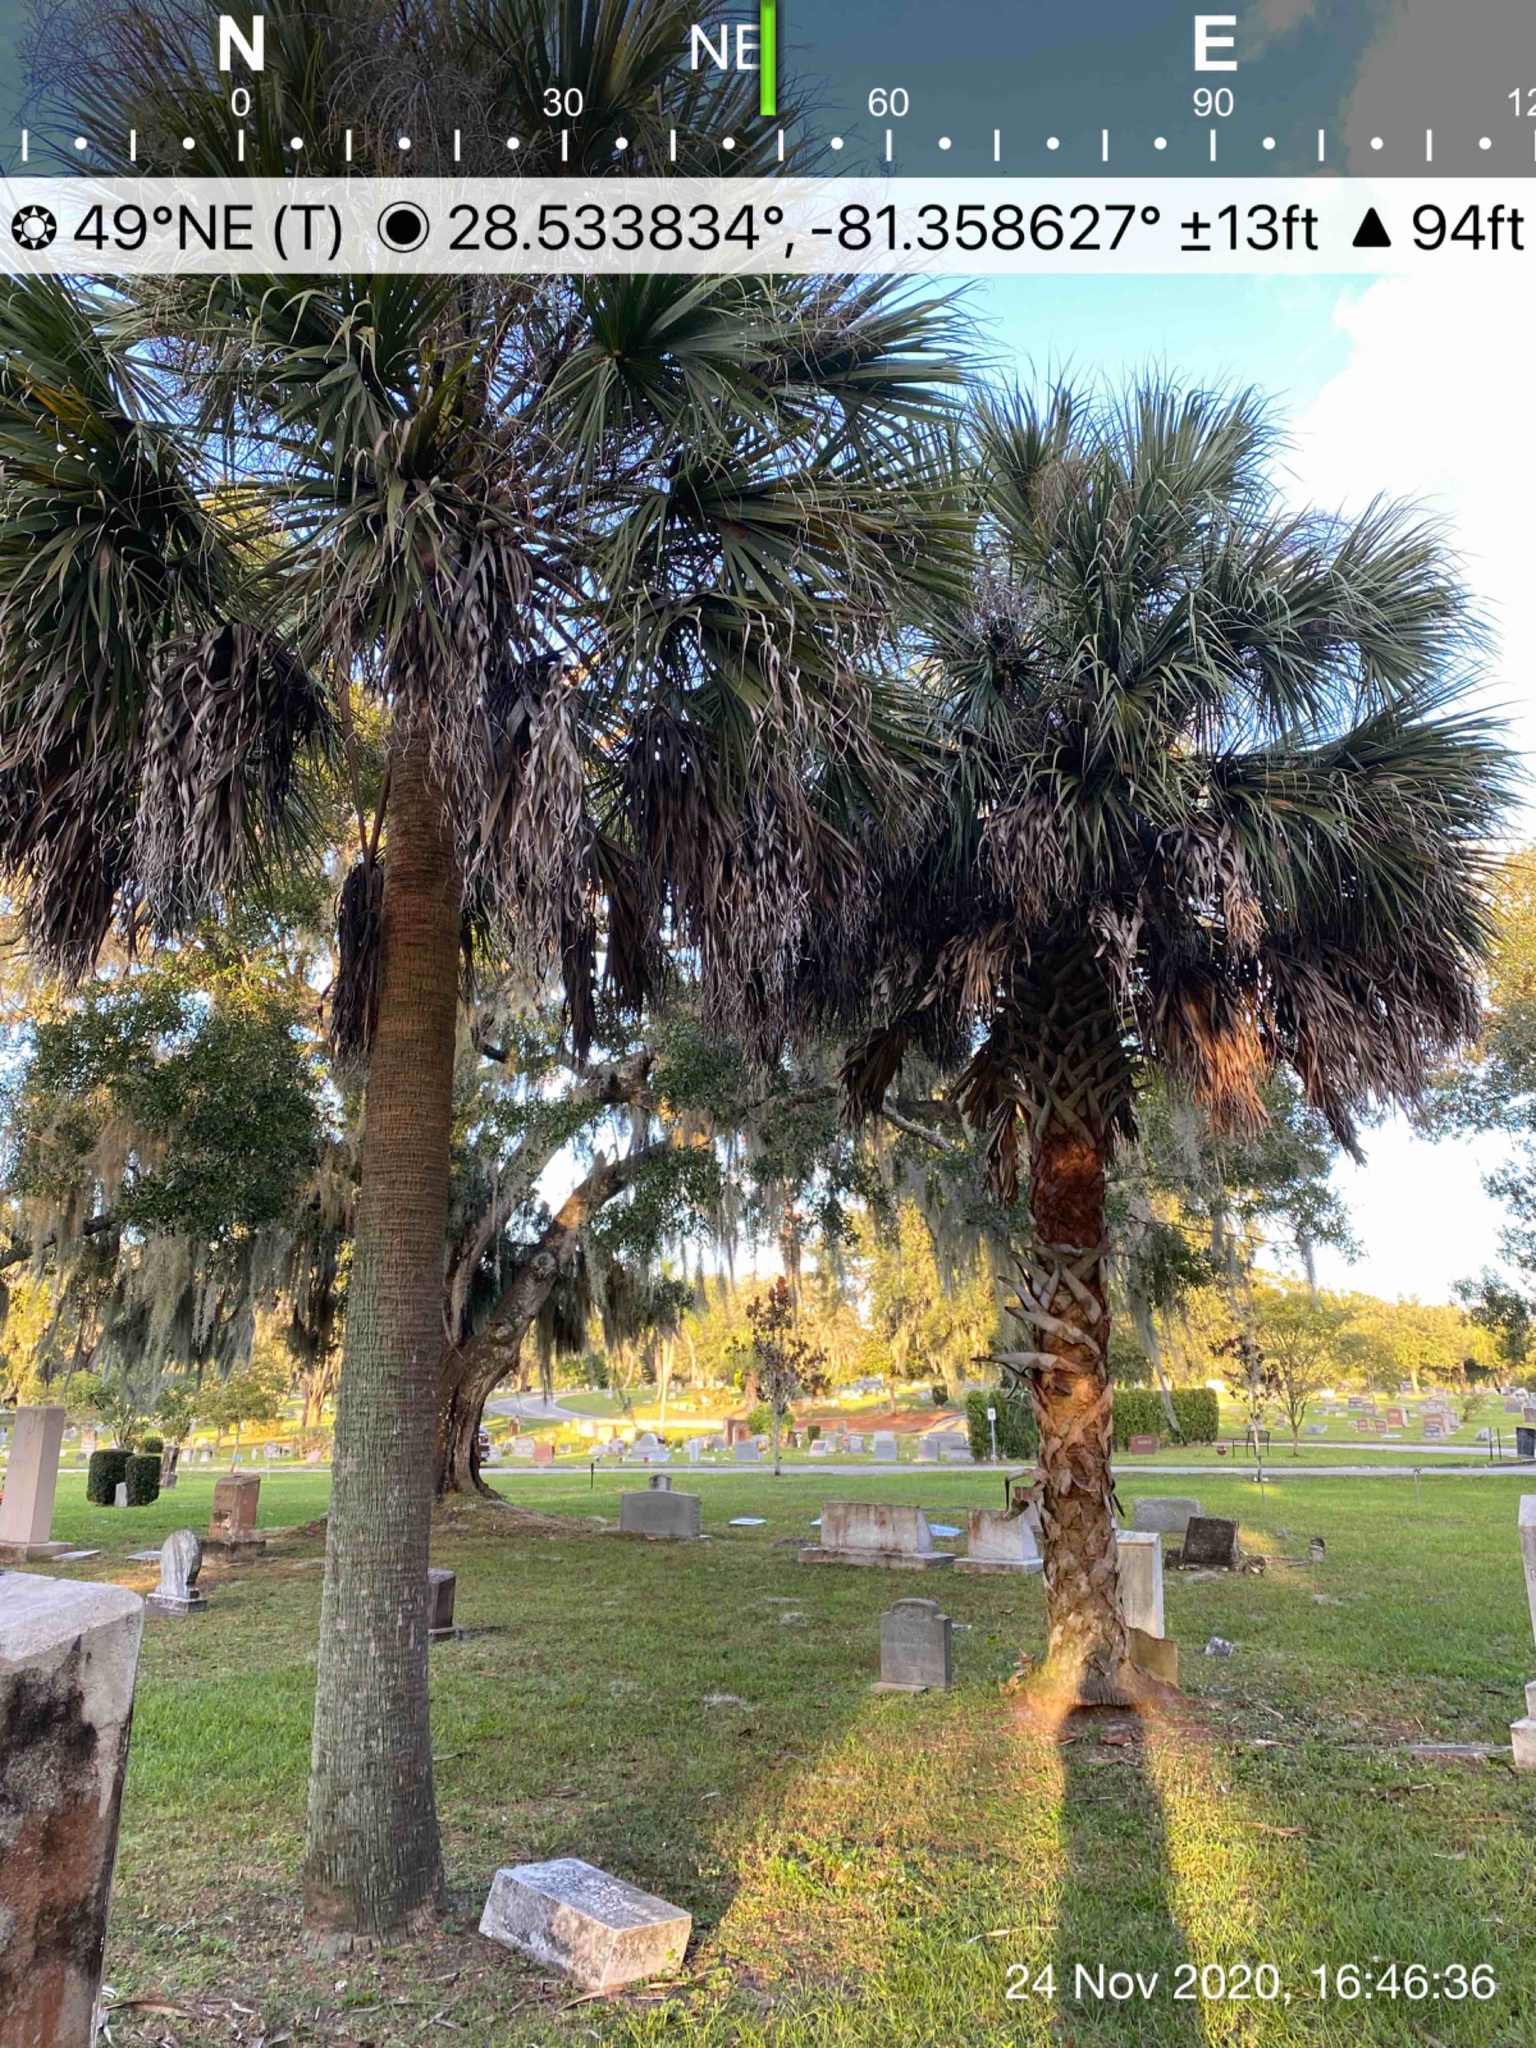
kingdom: Plantae
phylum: Tracheophyta
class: Liliopsida
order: Arecales
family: Arecaceae
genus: Sabal
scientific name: Sabal palmetto
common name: Blue palmetto
